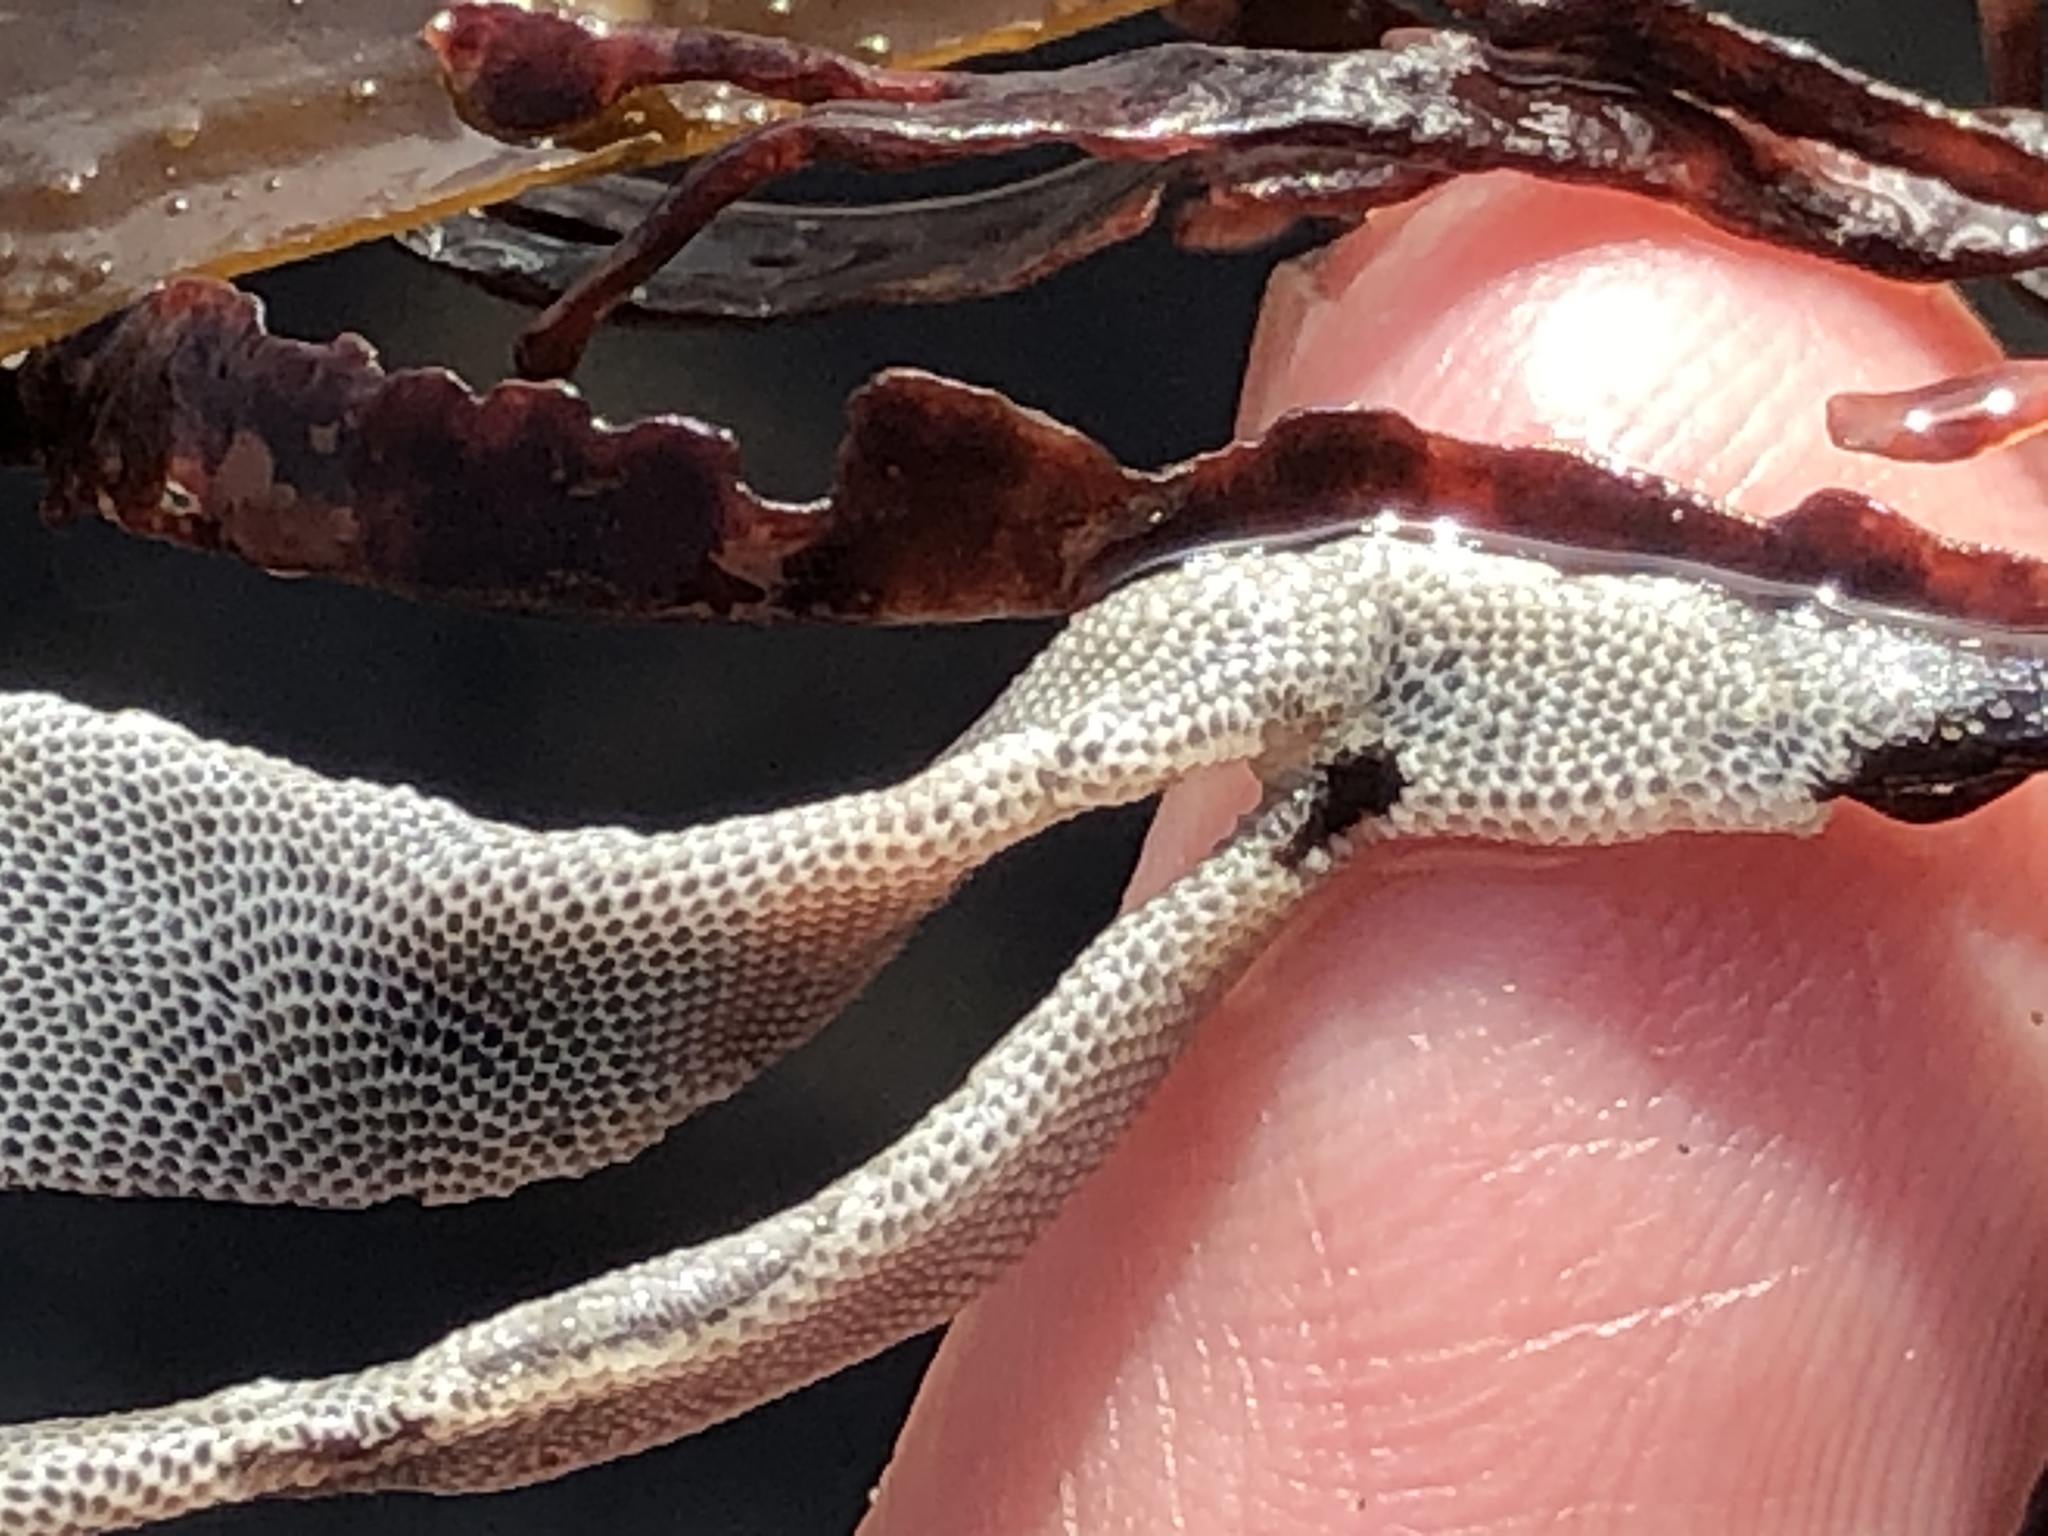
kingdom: Animalia
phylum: Bryozoa
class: Gymnolaemata
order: Cheilostomatida
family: Membraniporidae
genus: Jellyella
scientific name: Jellyella tuberculata
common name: Sargassum bryozoan
